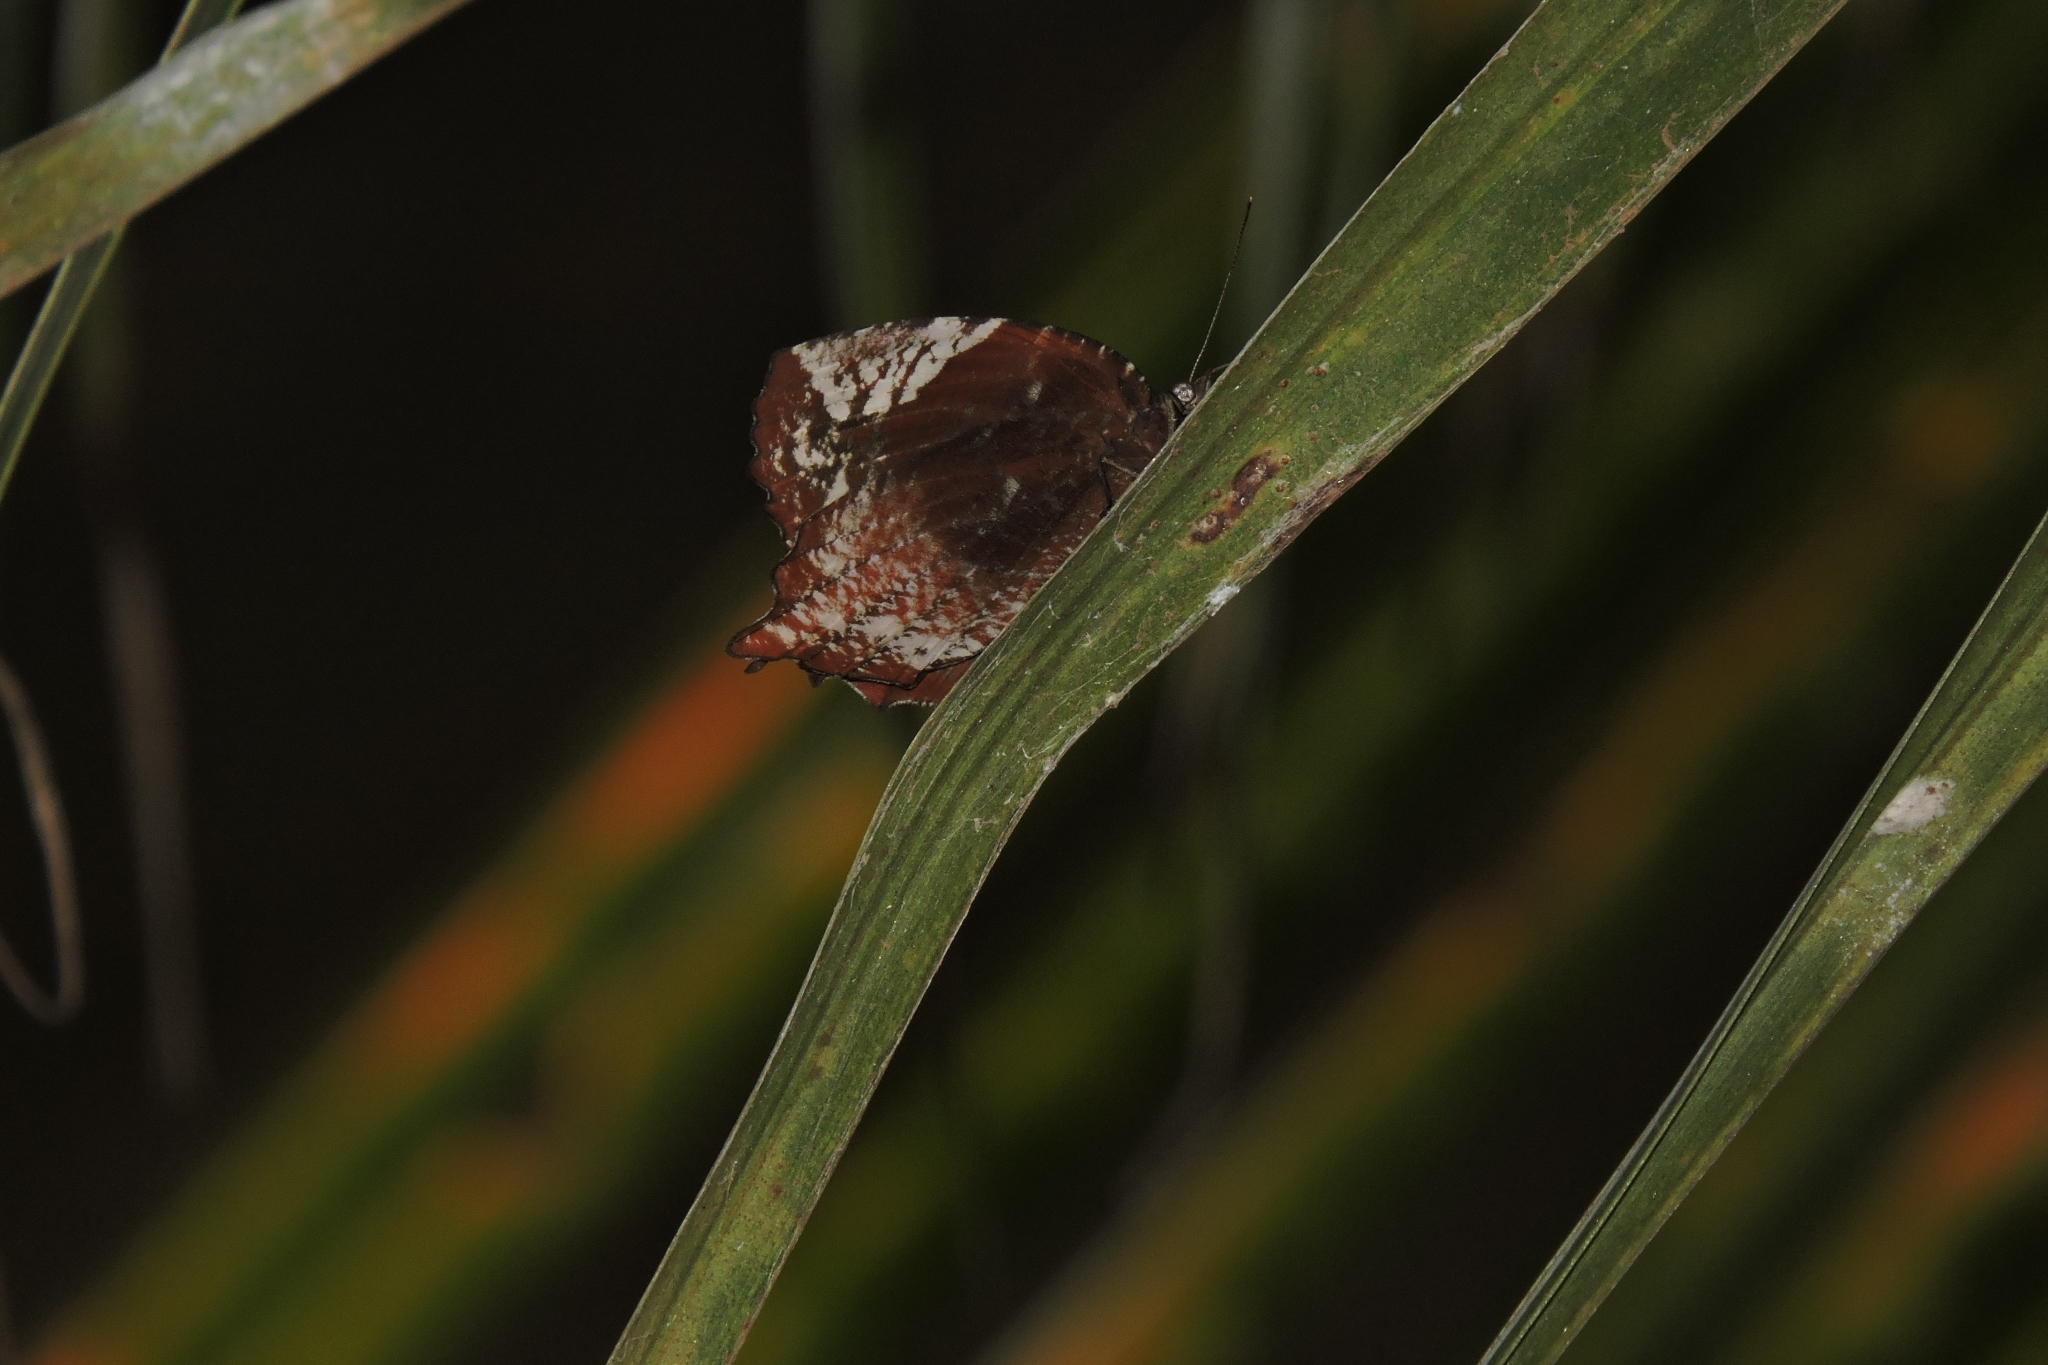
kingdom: Animalia
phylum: Arthropoda
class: Insecta
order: Lepidoptera
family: Nymphalidae
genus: Elymnias
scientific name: Elymnias caudata
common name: Tailed palmfly
